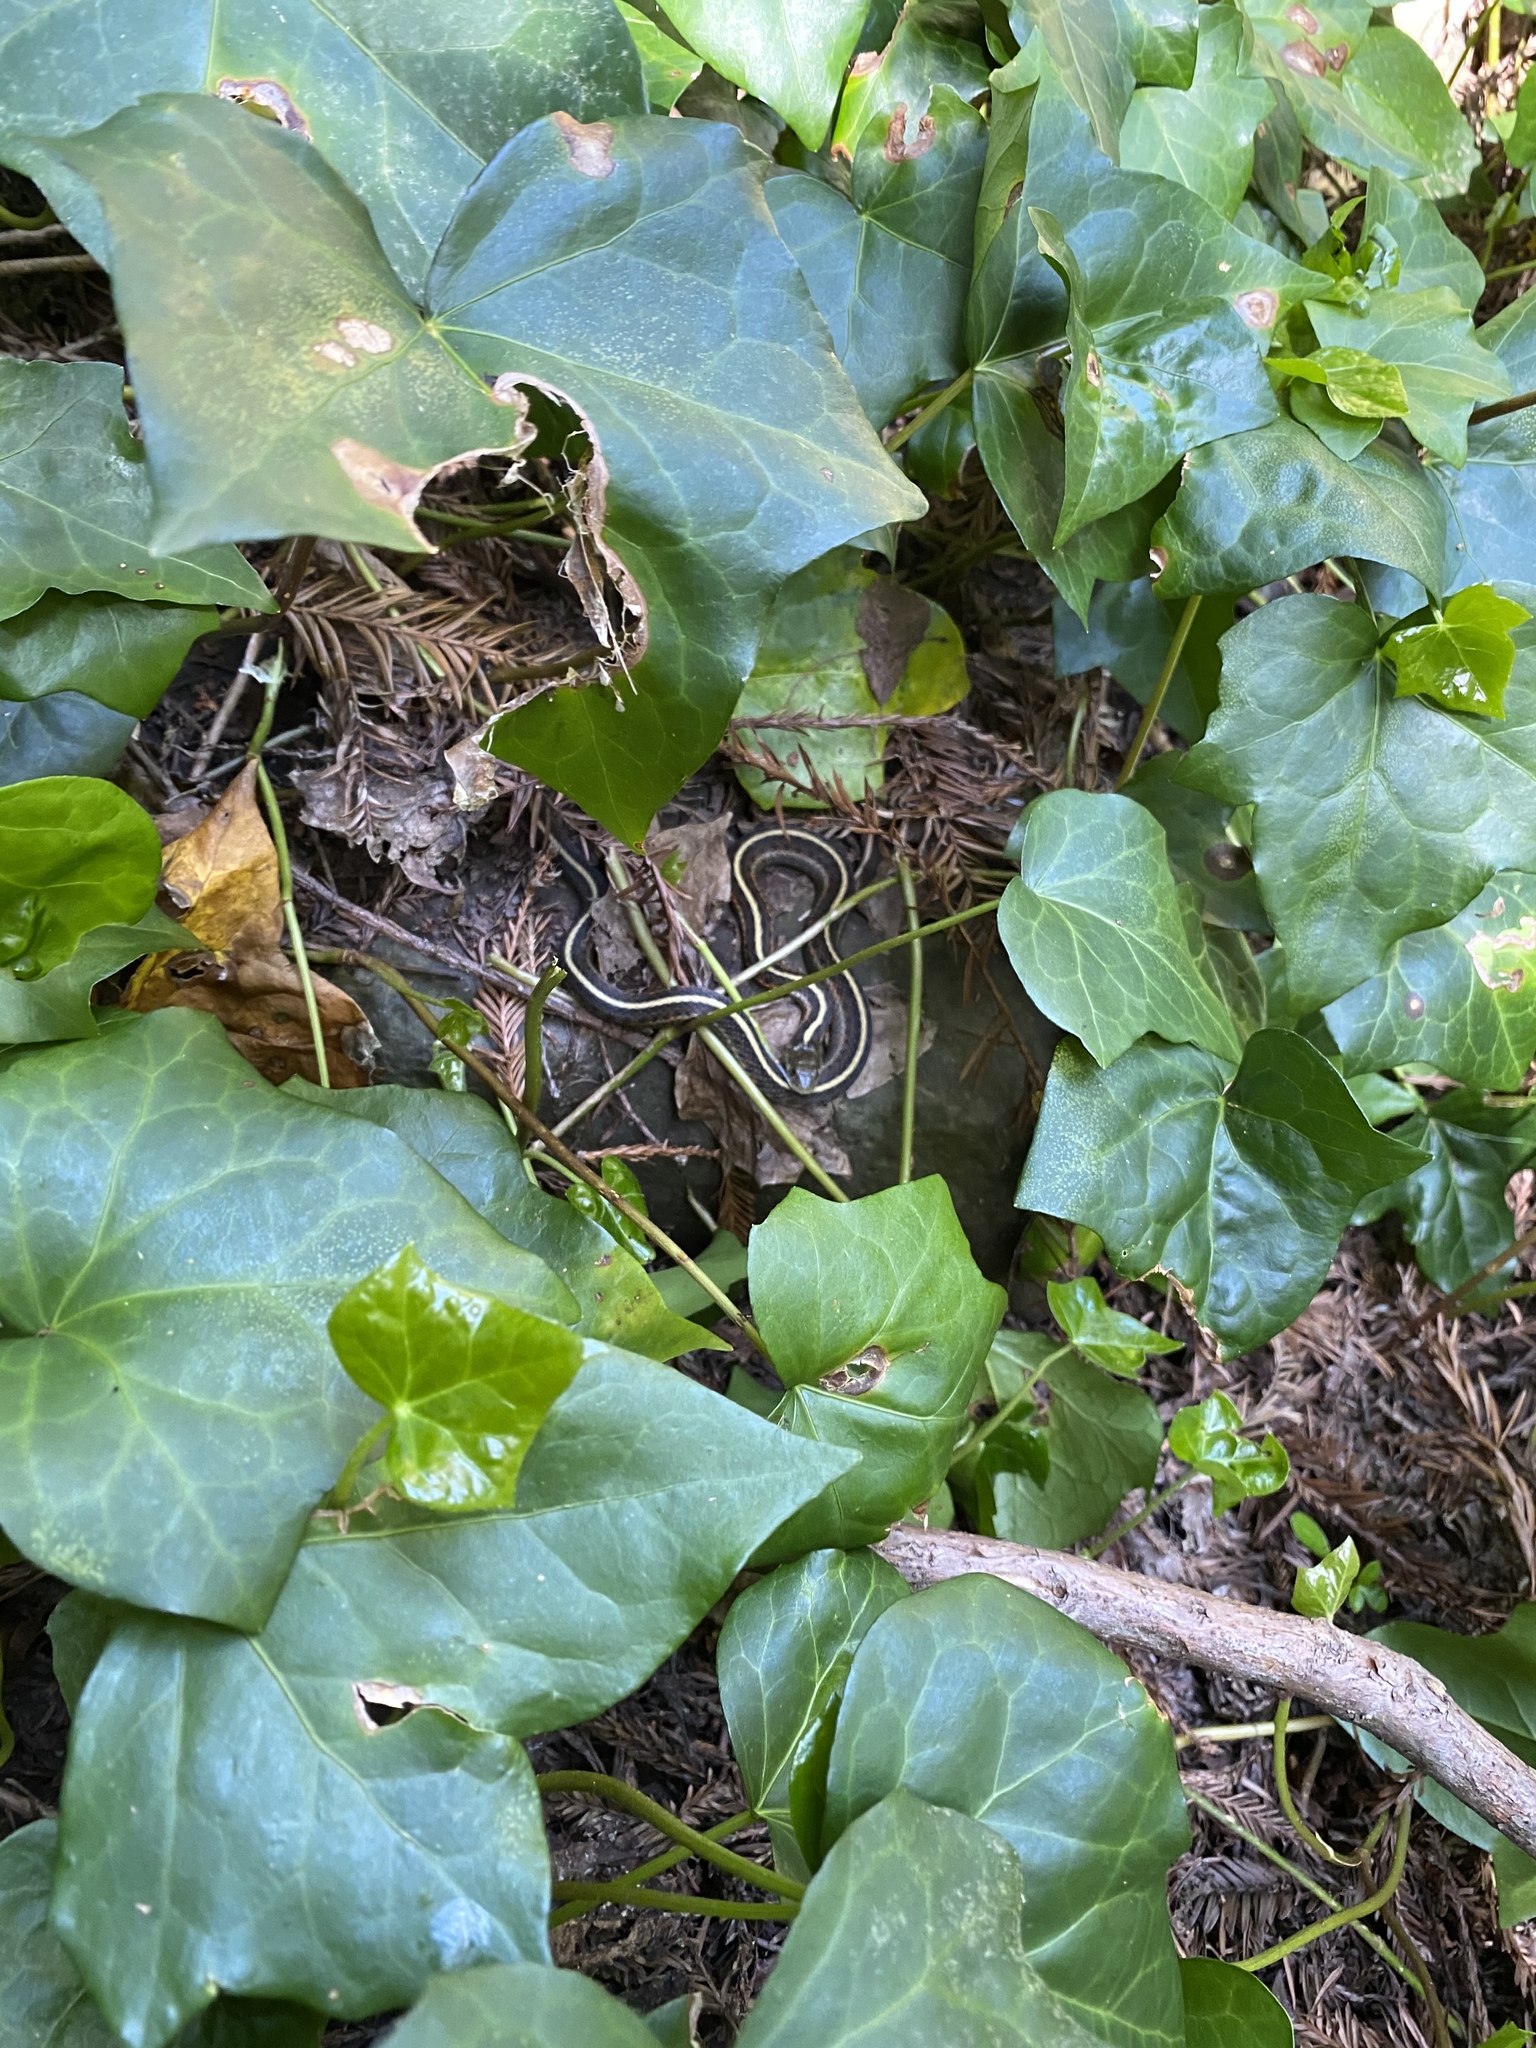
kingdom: Animalia
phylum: Chordata
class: Squamata
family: Colubridae
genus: Thamnophis
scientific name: Thamnophis elegans
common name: Western terrestrial garter snake
